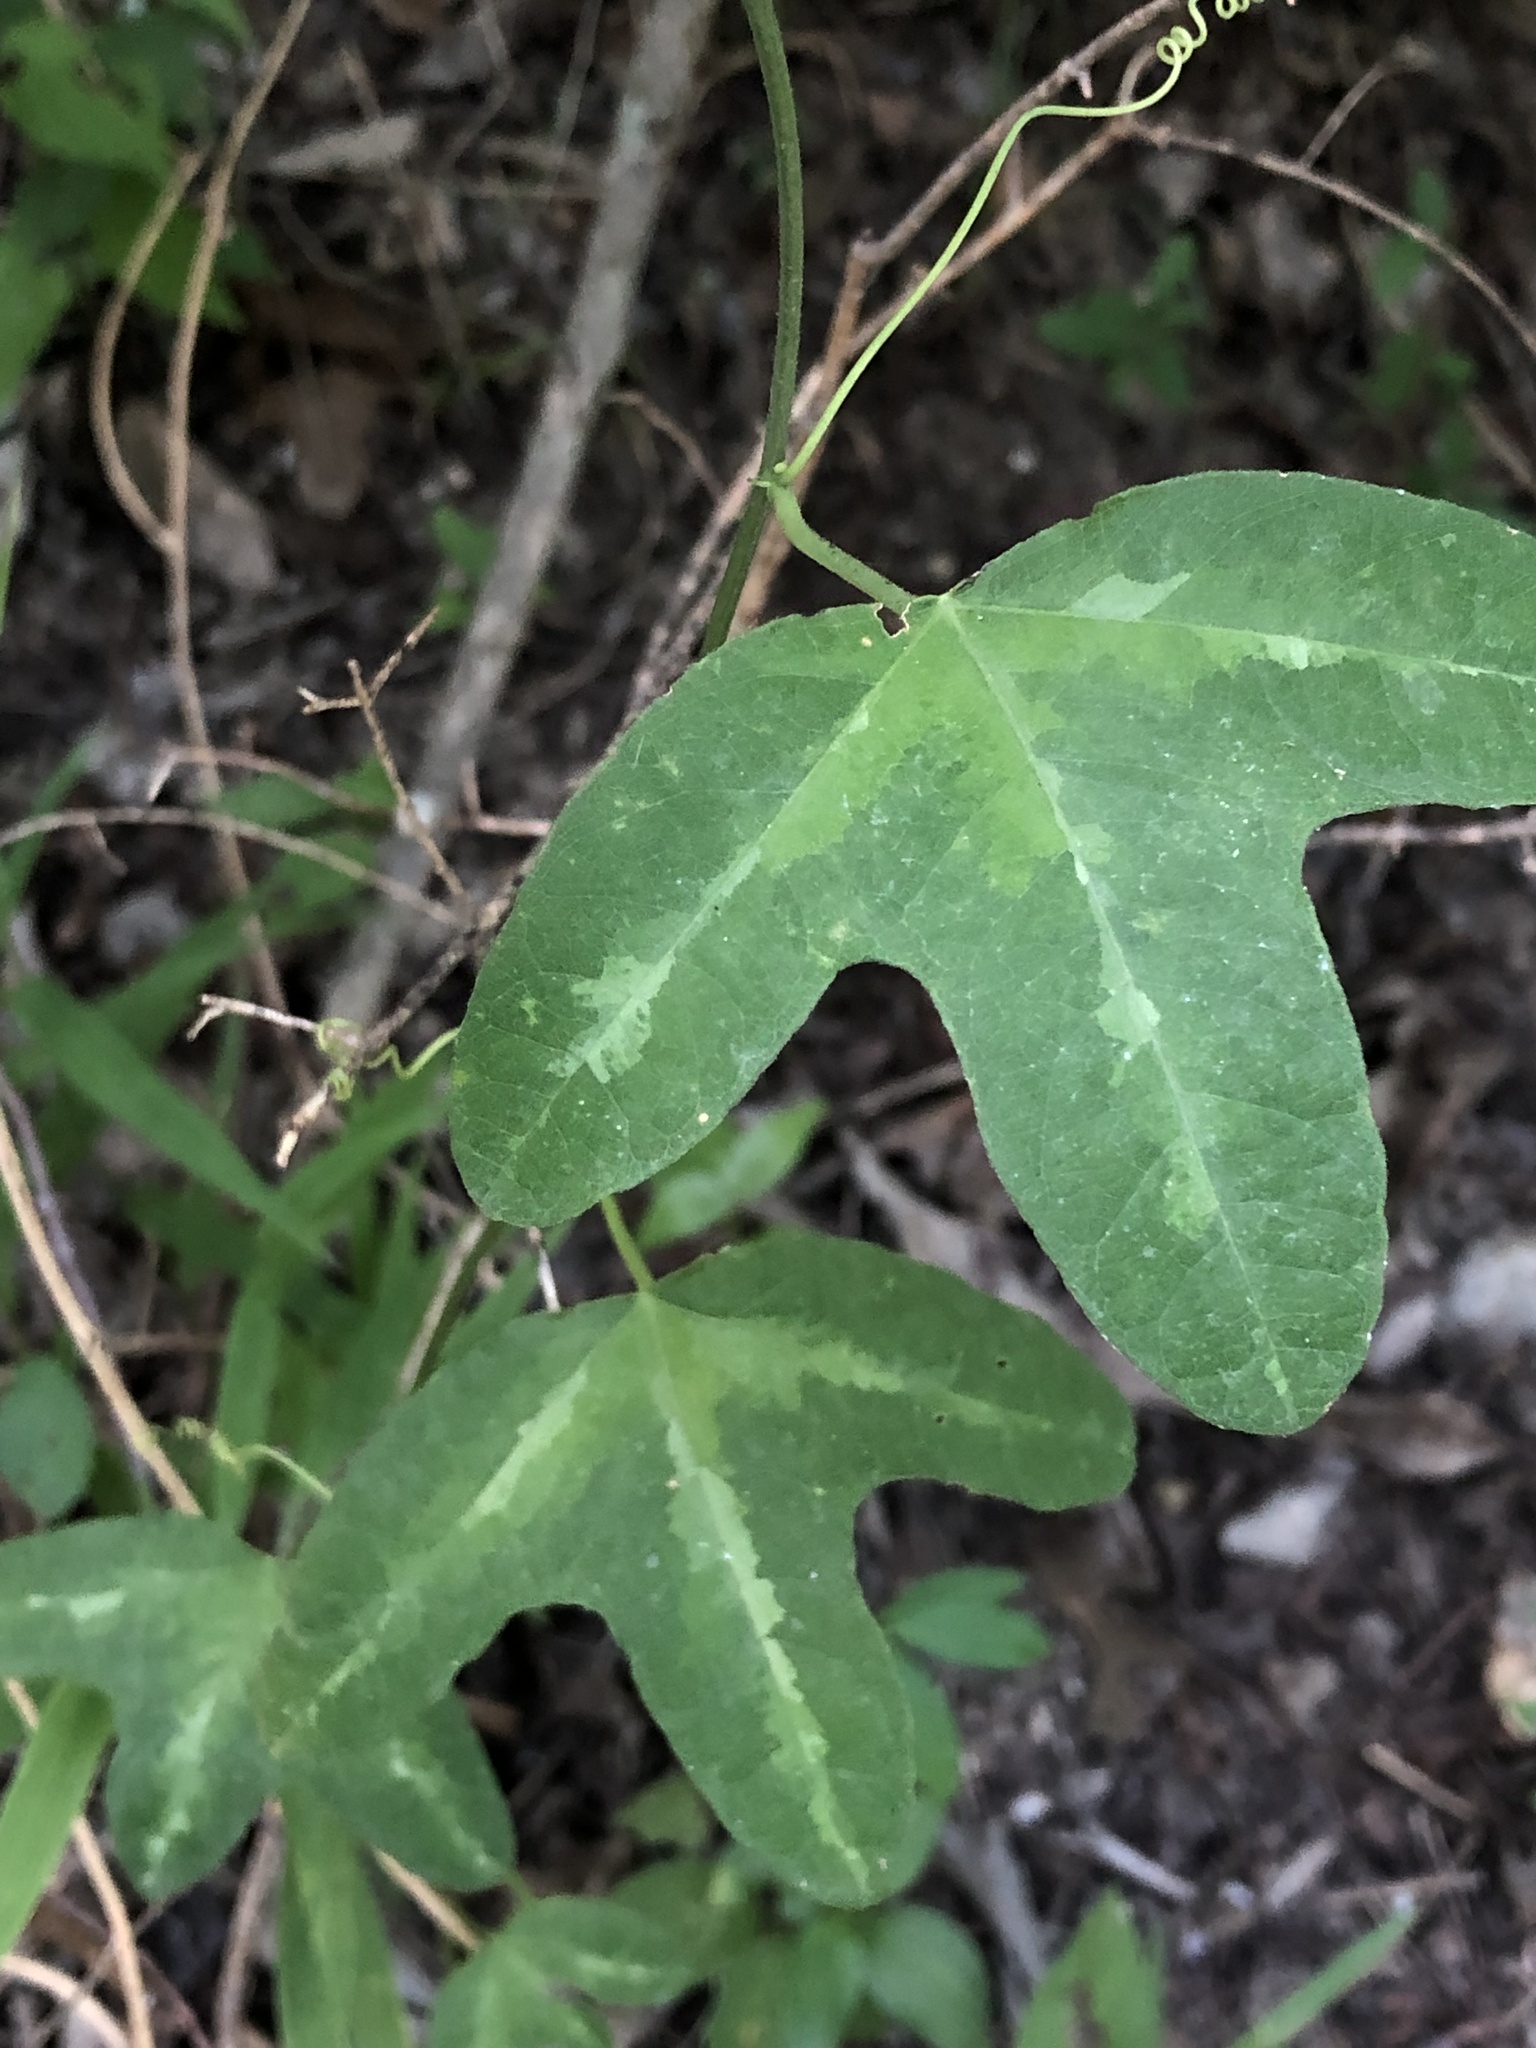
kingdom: Plantae
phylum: Tracheophyta
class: Magnoliopsida
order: Malpighiales
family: Passifloraceae
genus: Passiflora
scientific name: Passiflora lutea
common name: Yellow passionflower
